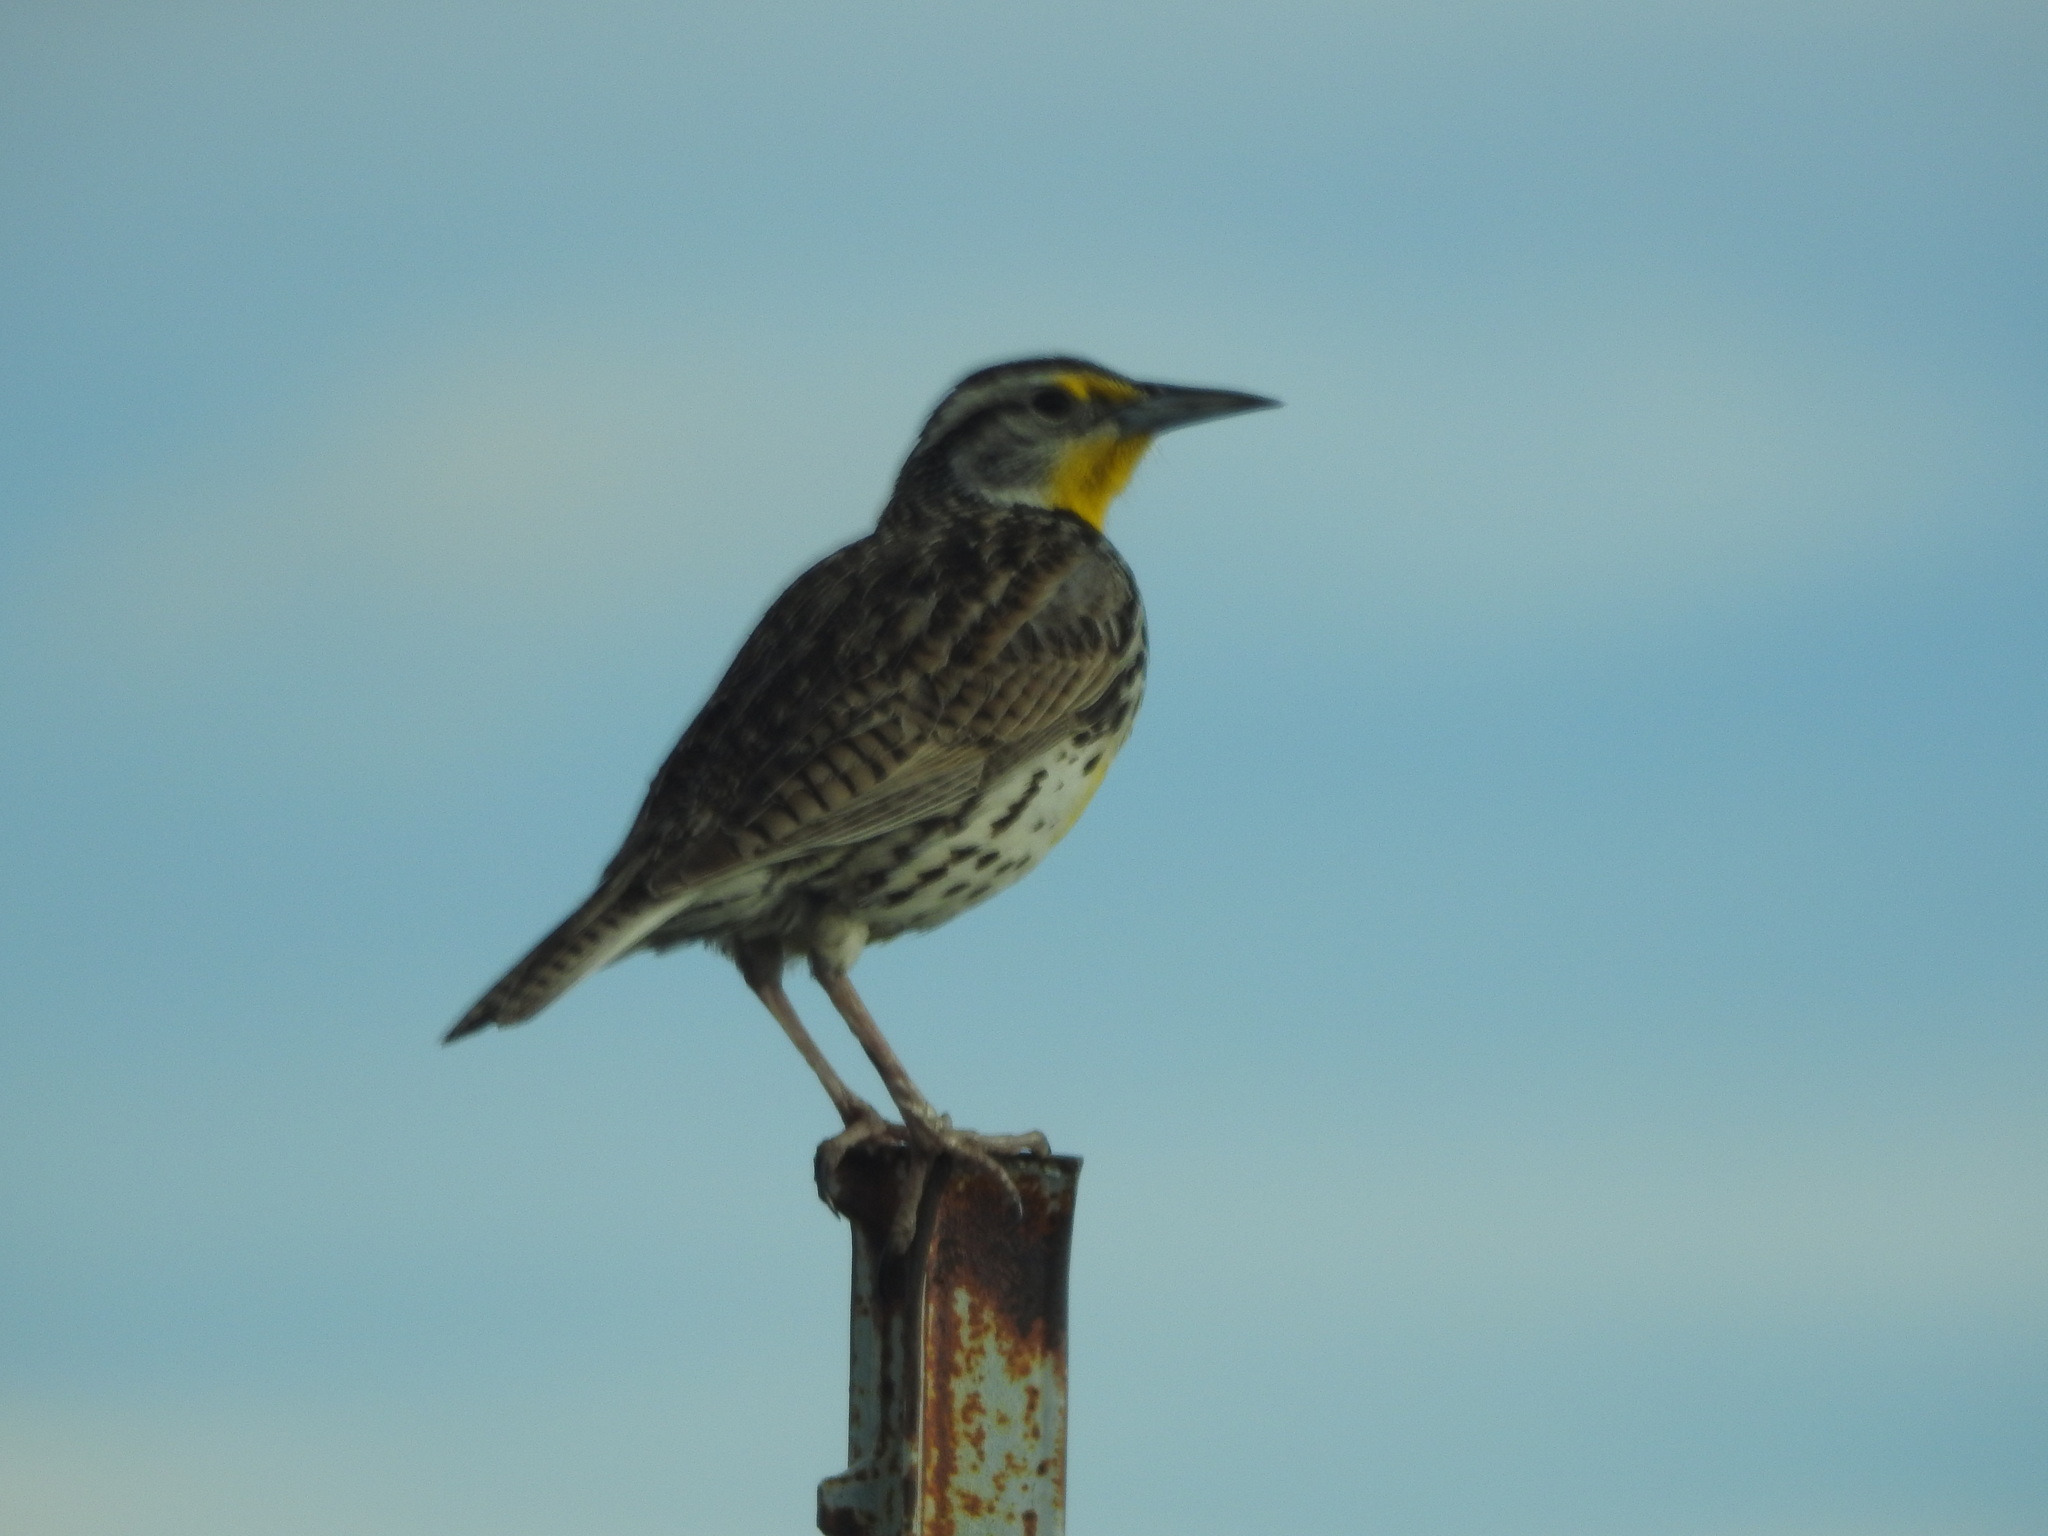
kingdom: Animalia
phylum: Chordata
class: Aves
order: Passeriformes
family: Icteridae
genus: Sturnella
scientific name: Sturnella neglecta
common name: Western meadowlark
